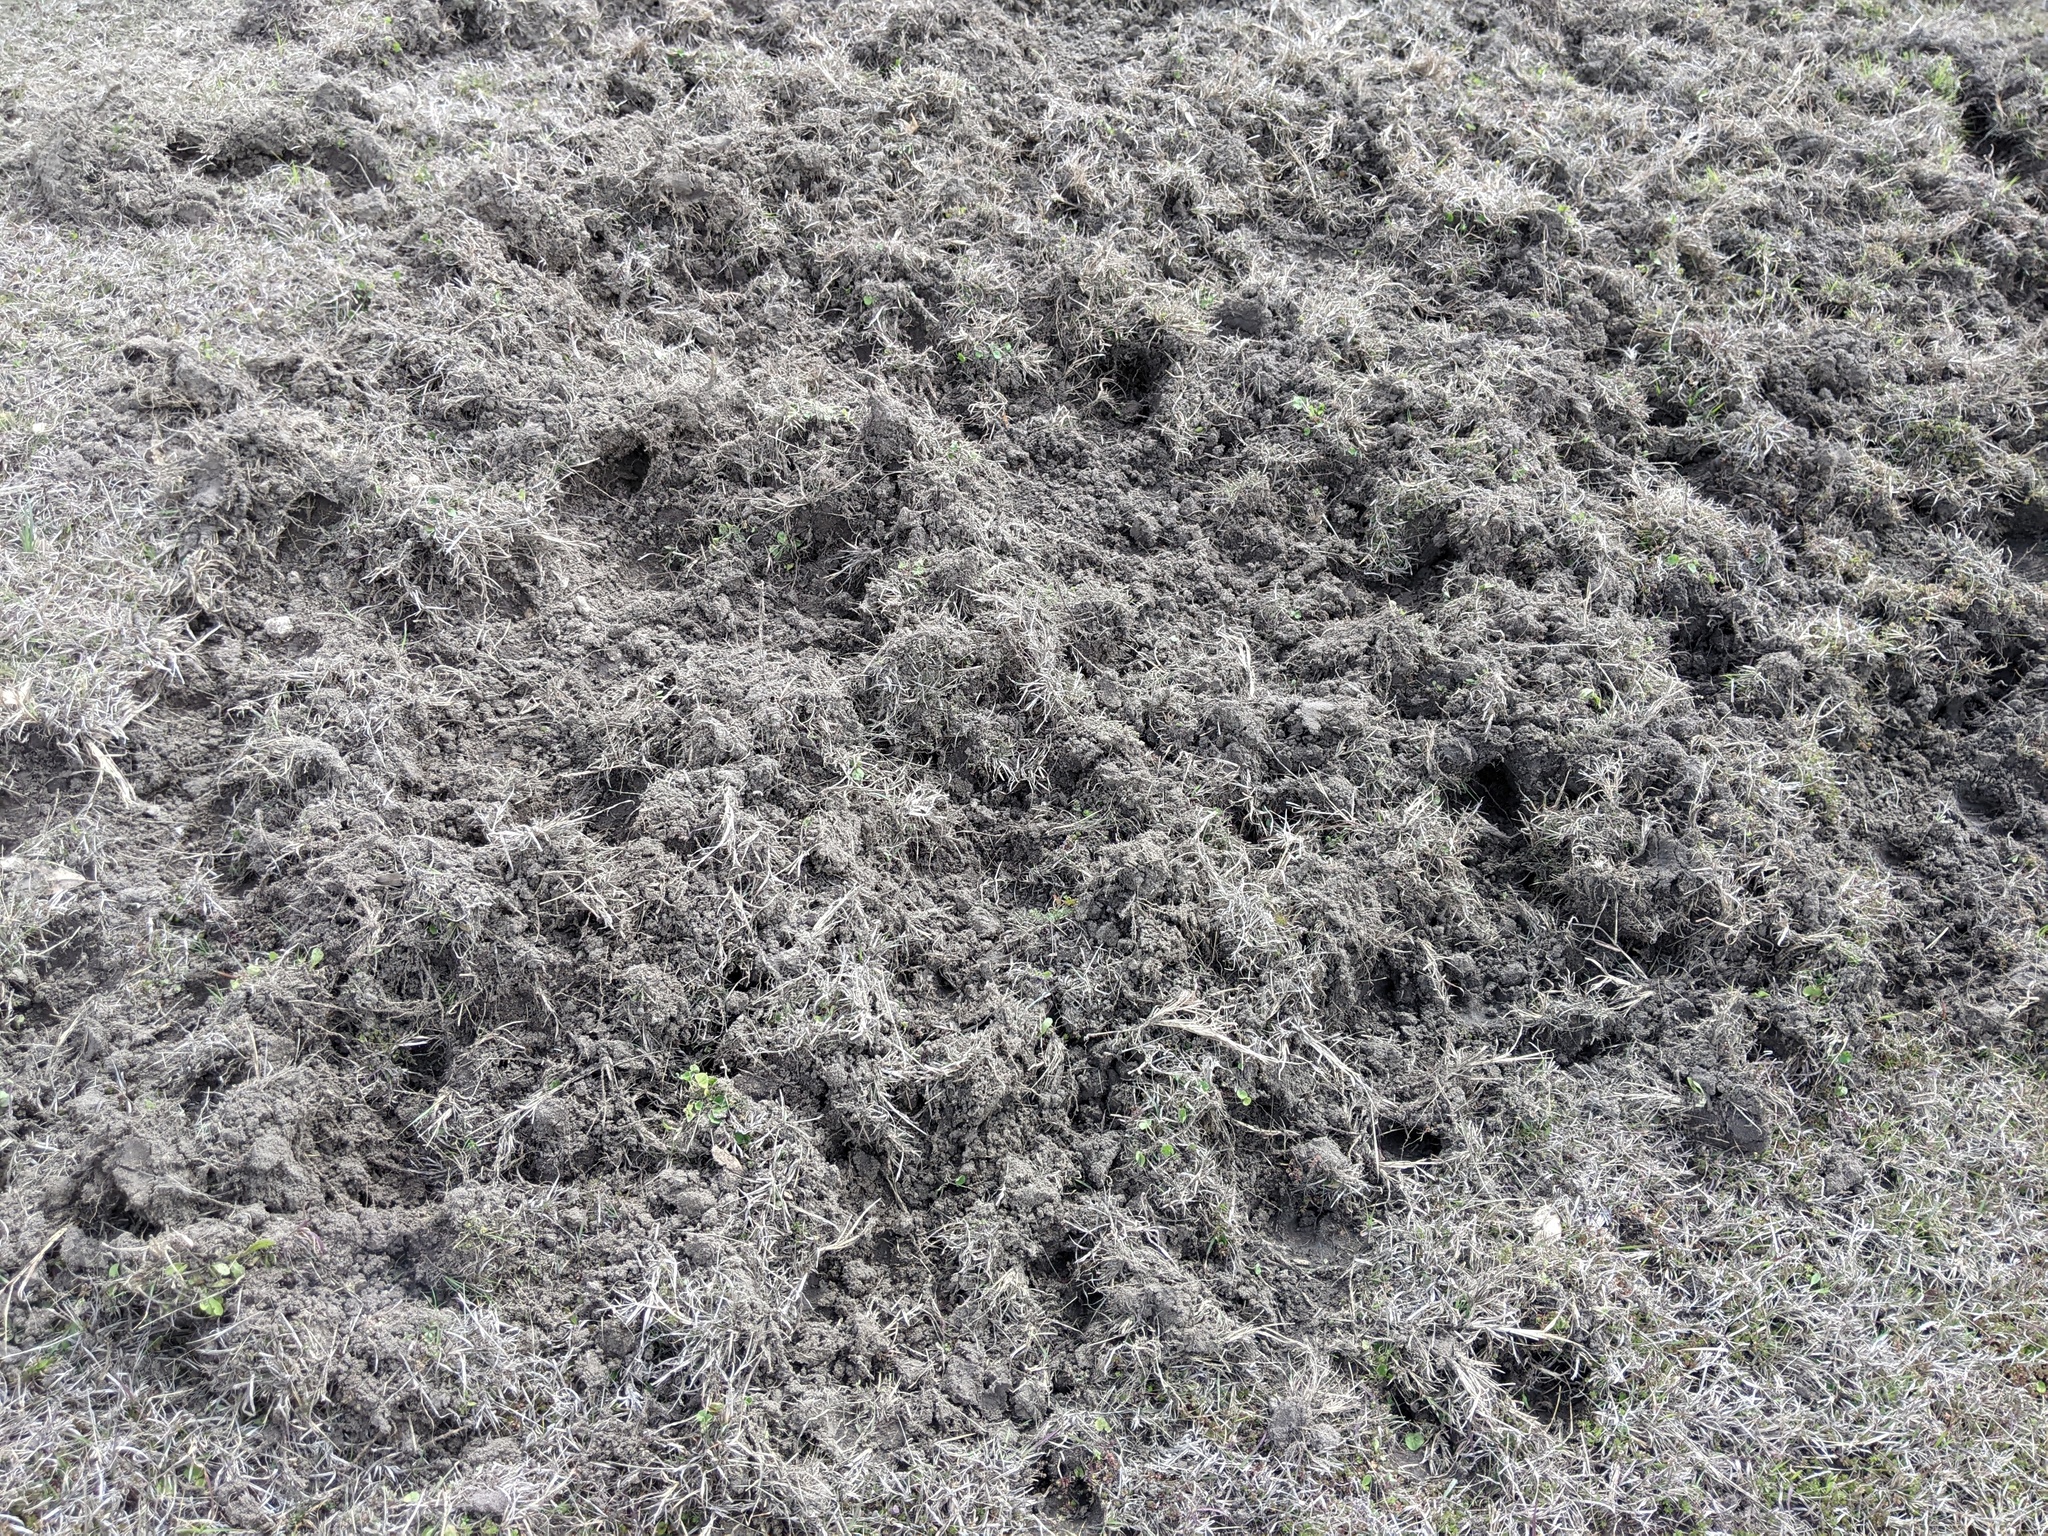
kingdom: Animalia
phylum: Chordata
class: Mammalia
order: Artiodactyla
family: Suidae
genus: Sus
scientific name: Sus scrofa
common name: Wild boar
